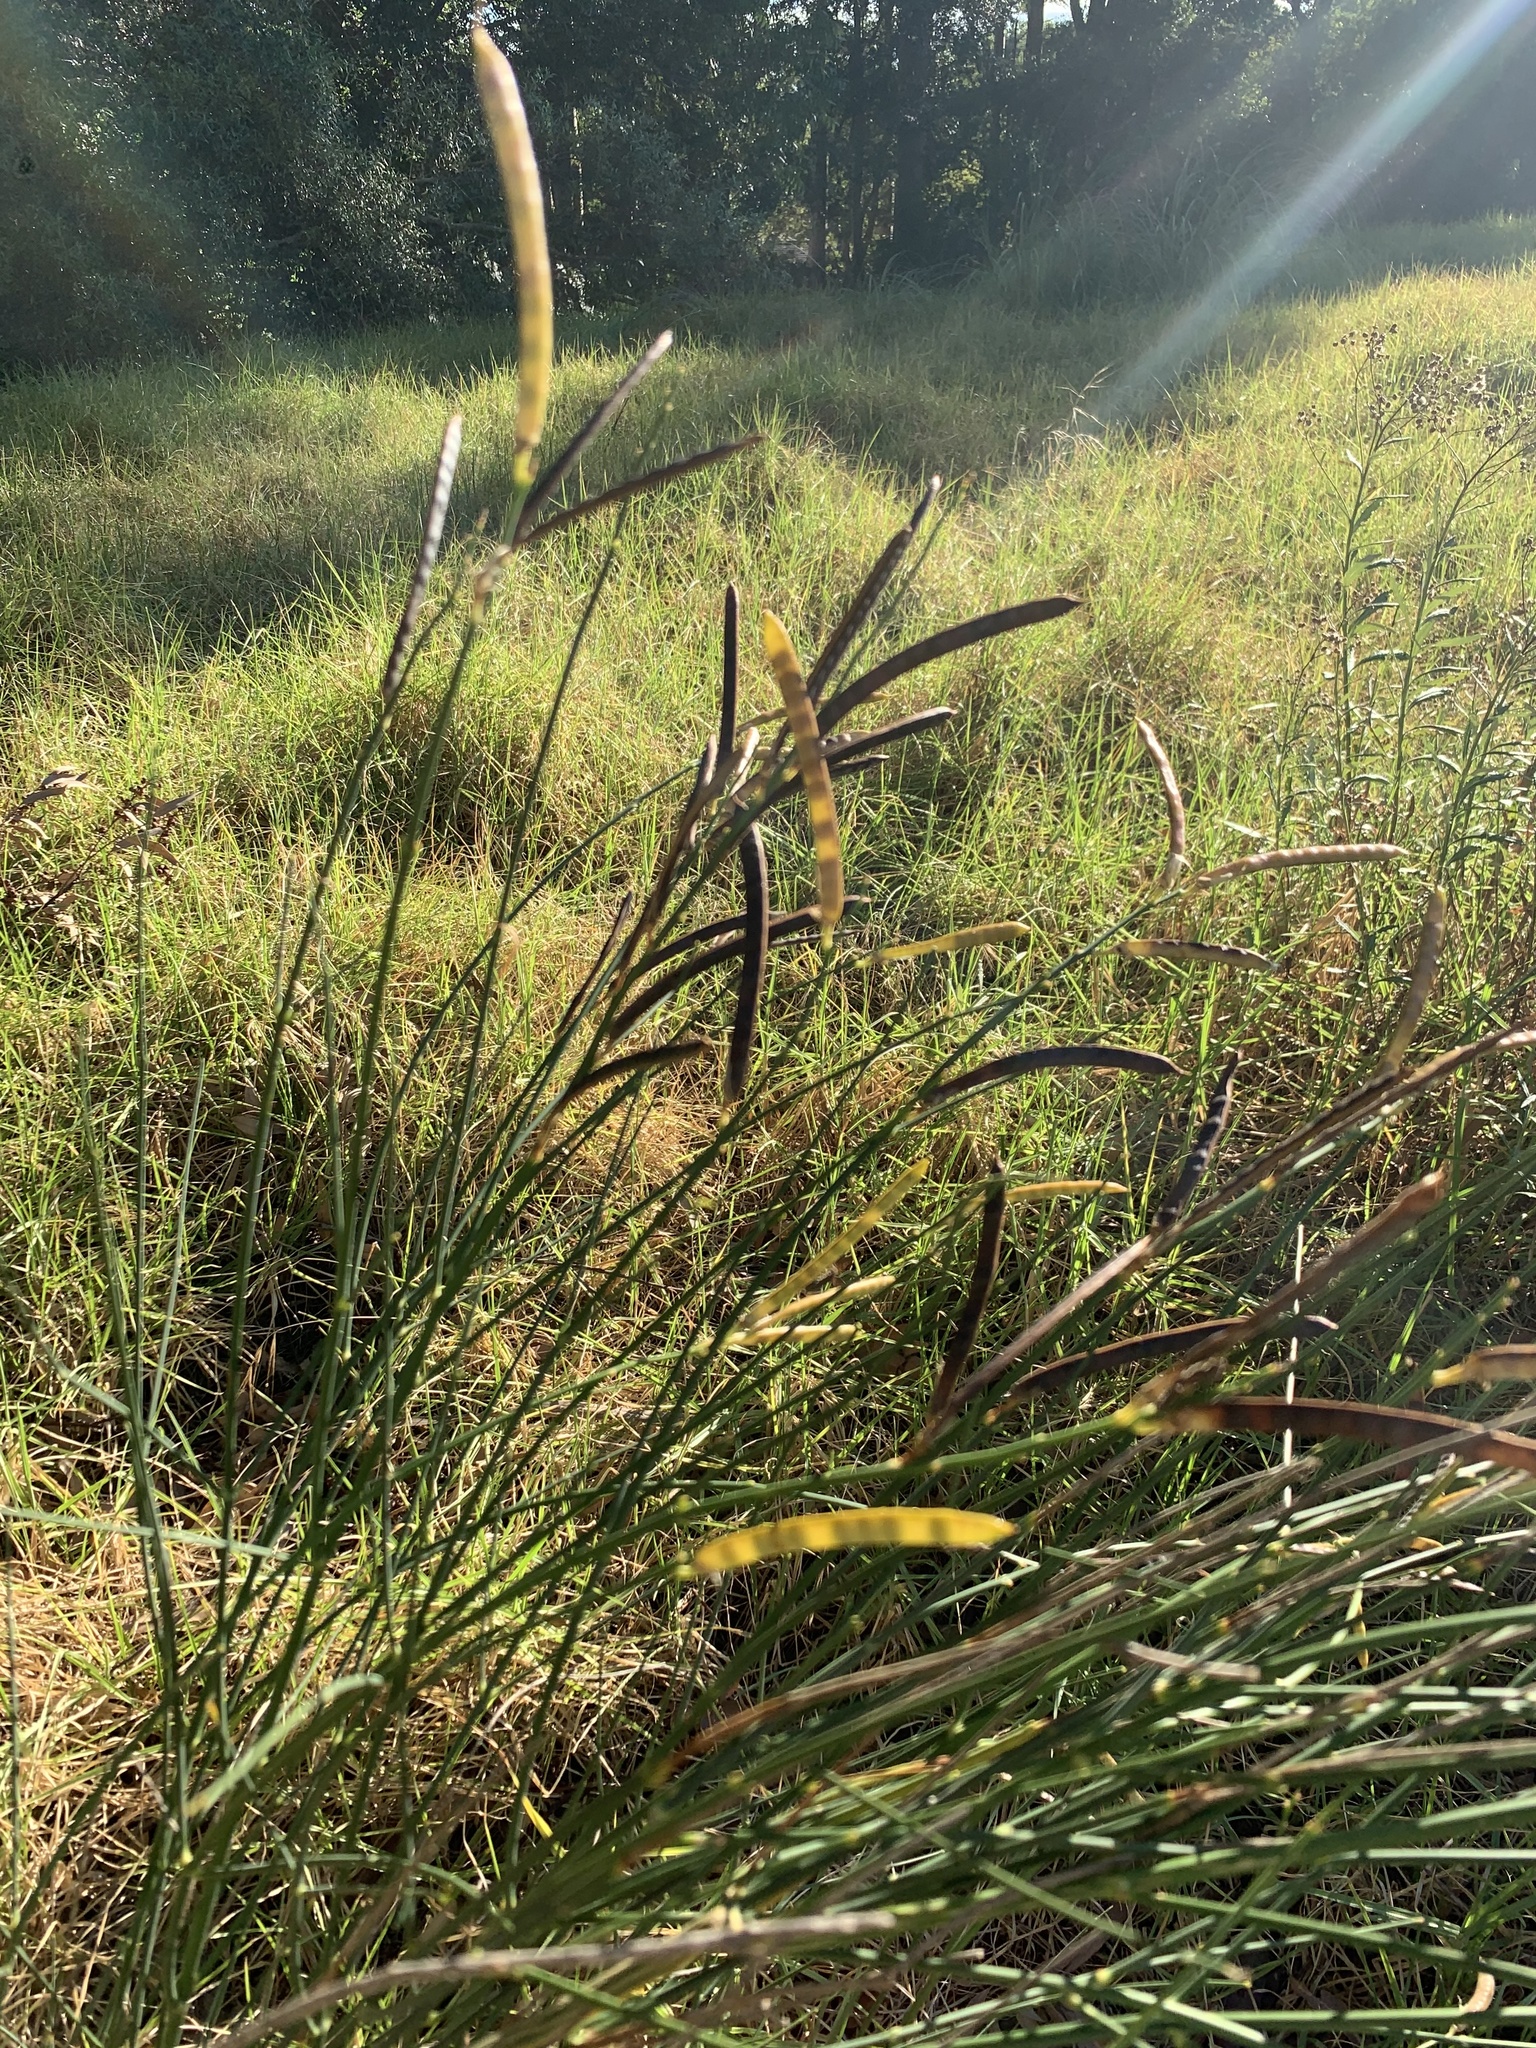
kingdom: Plantae
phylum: Tracheophyta
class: Magnoliopsida
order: Fabales
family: Fabaceae
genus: Spartium
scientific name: Spartium junceum
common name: Spanish broom
